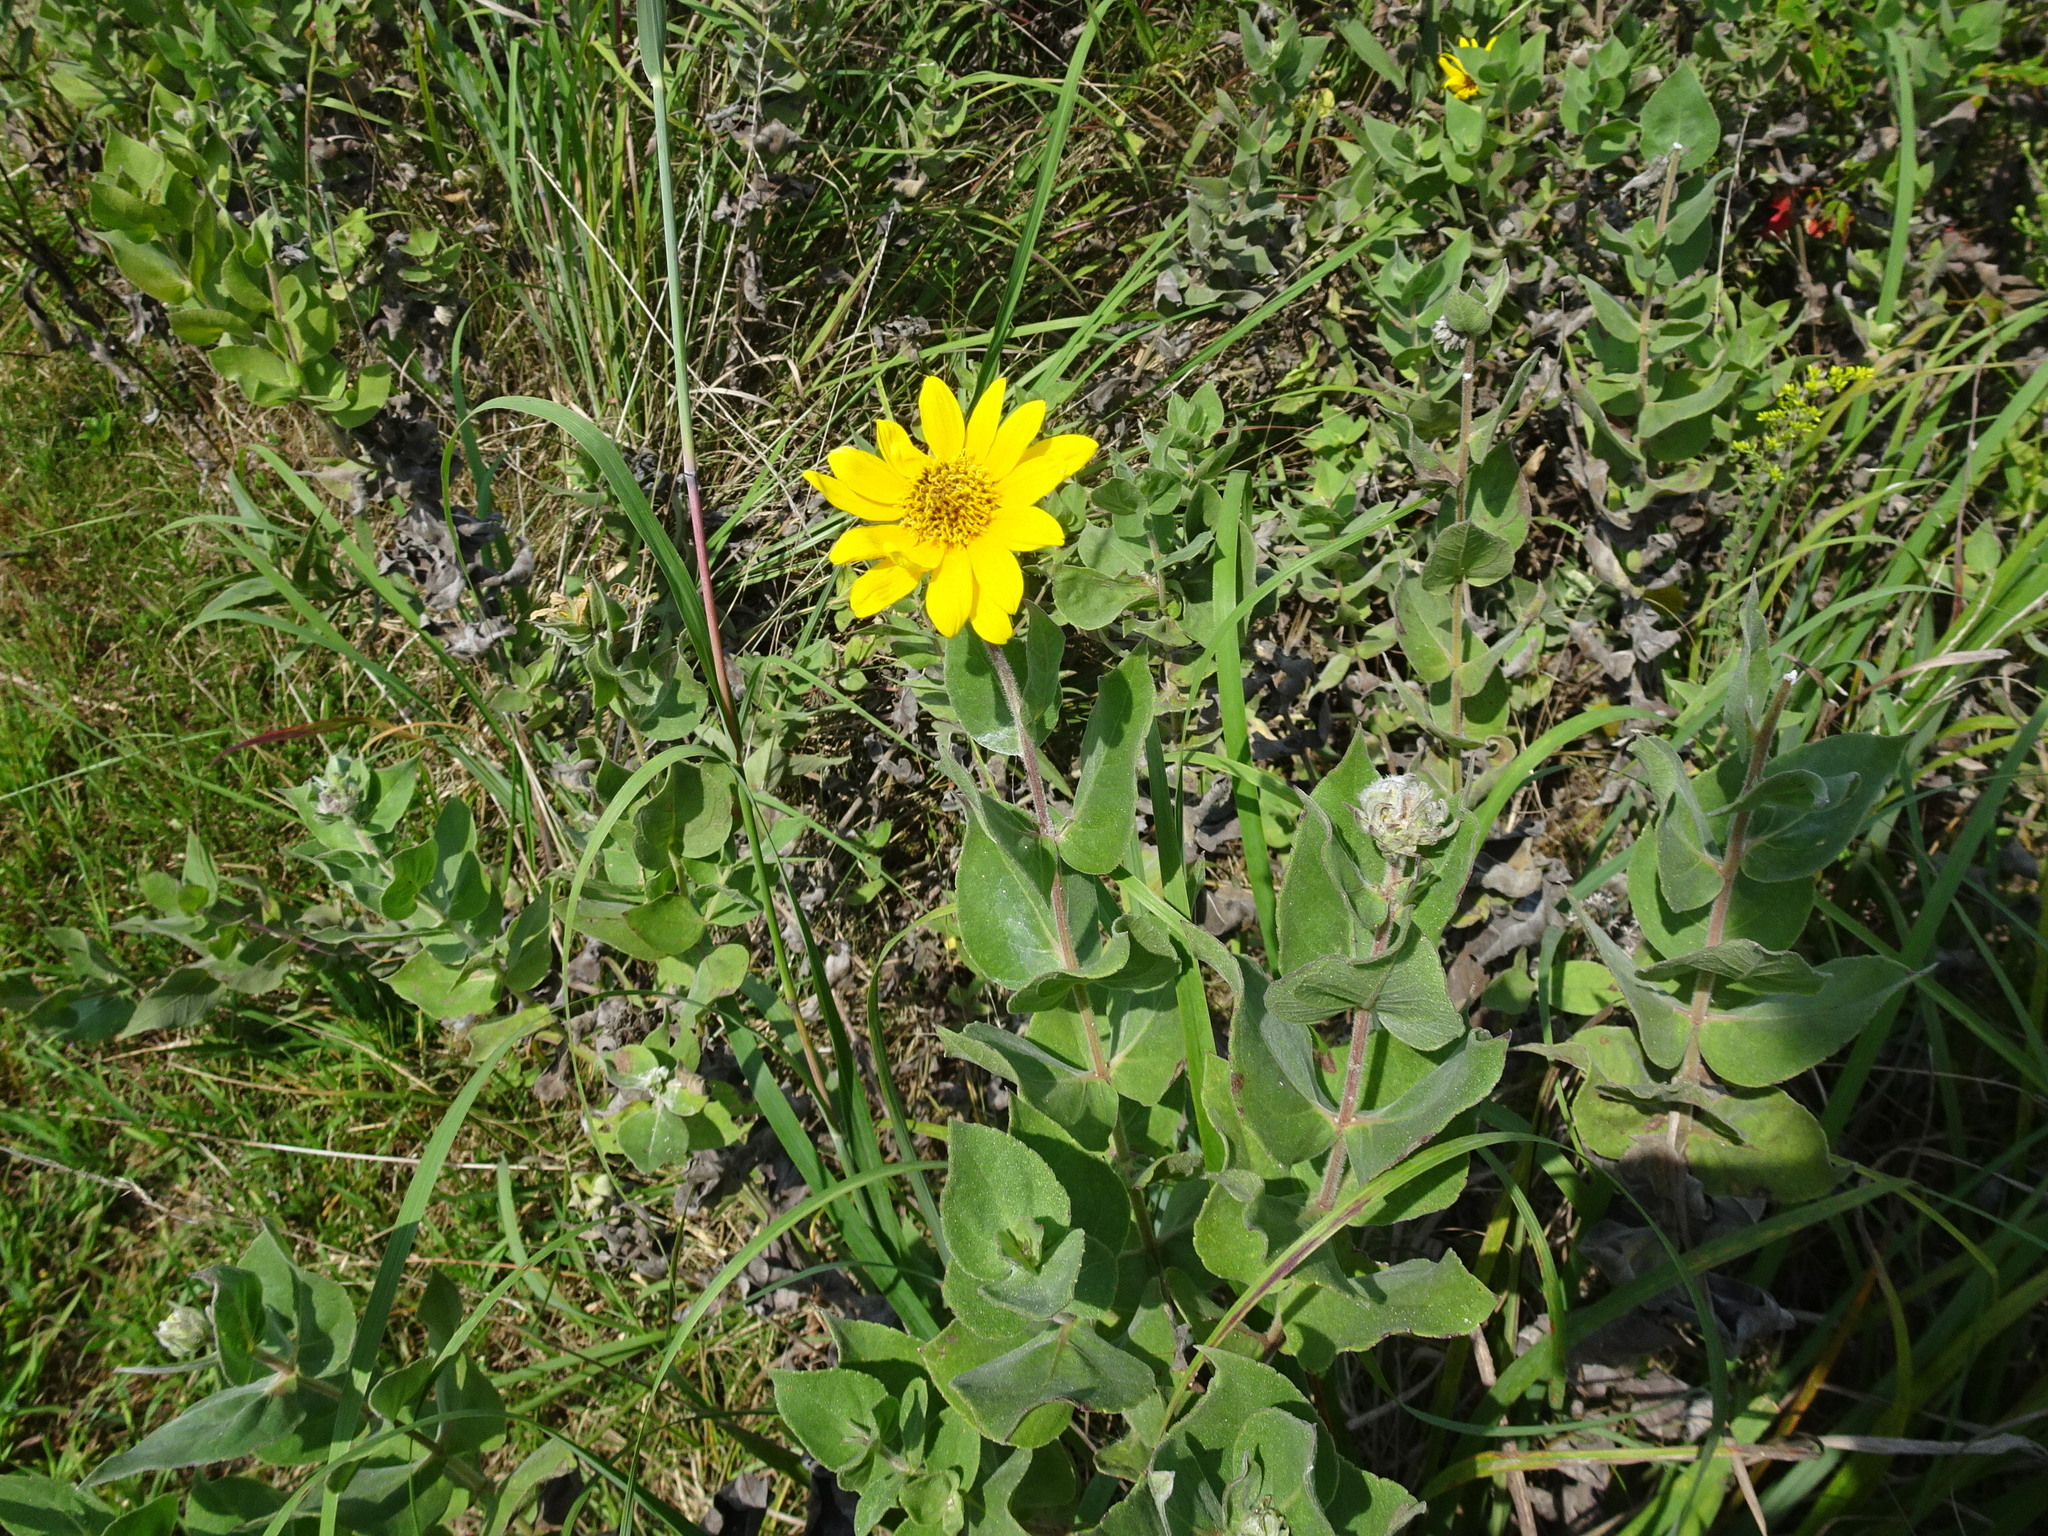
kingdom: Plantae
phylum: Tracheophyta
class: Magnoliopsida
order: Asterales
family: Asteraceae
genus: Helianthus
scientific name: Helianthus mollis
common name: Ashy sunflower
